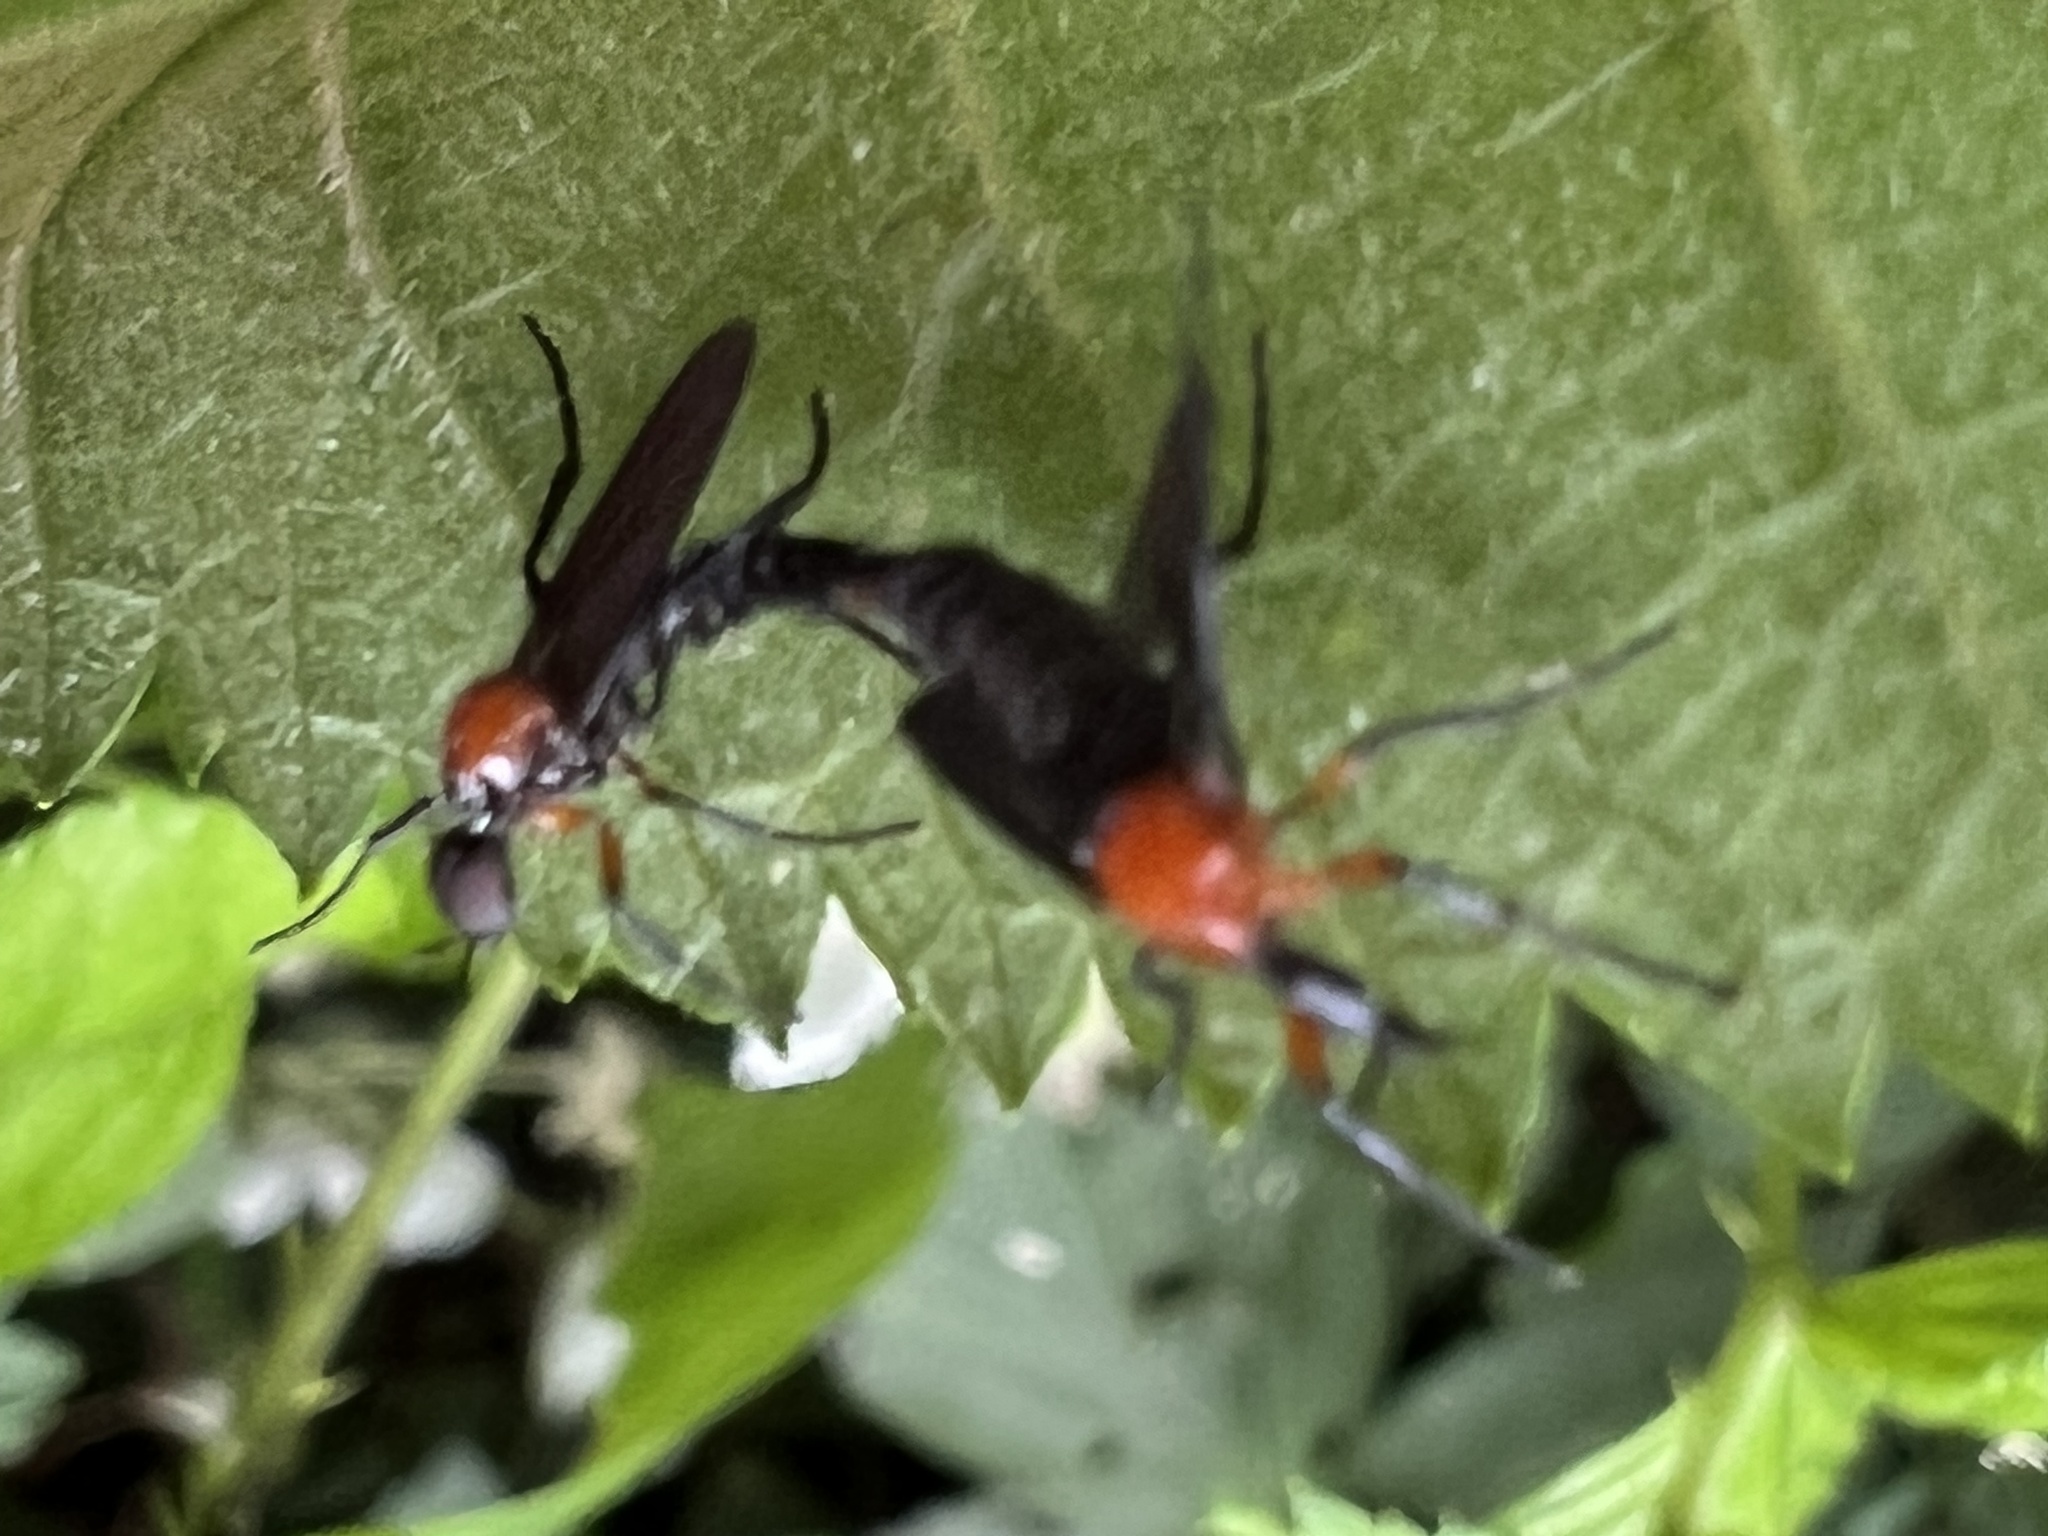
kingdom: Animalia
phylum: Arthropoda
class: Insecta
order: Diptera
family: Bibionidae
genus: Dilophus
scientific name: Dilophus spinipes
